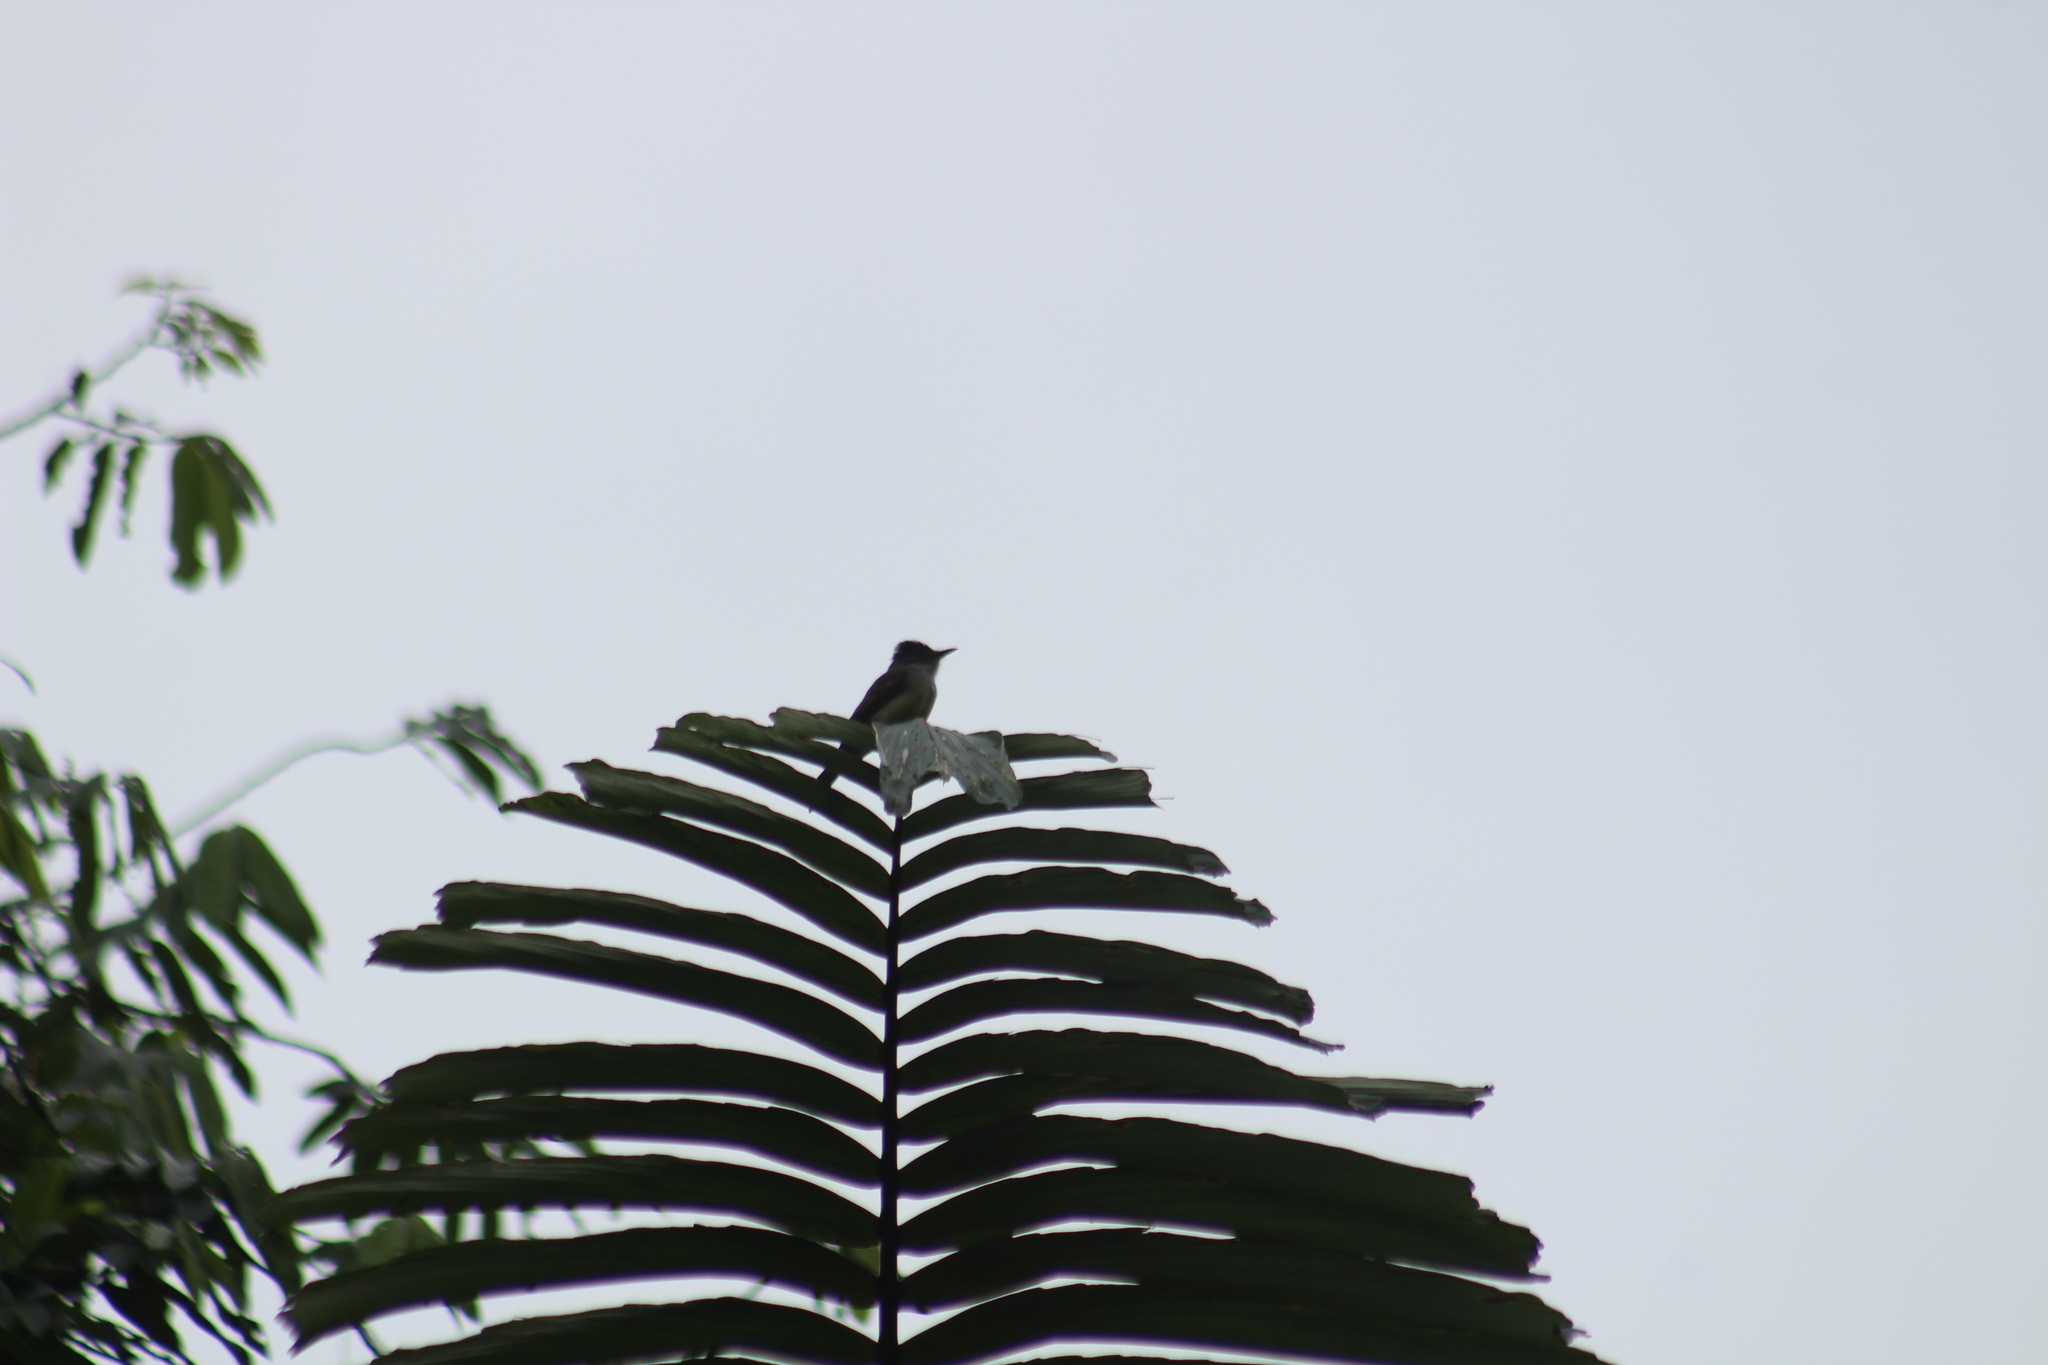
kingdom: Animalia
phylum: Chordata
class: Aves
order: Passeriformes
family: Tyrannidae
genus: Myiarchus
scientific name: Myiarchus tuberculifer
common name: Dusky-capped flycatcher
